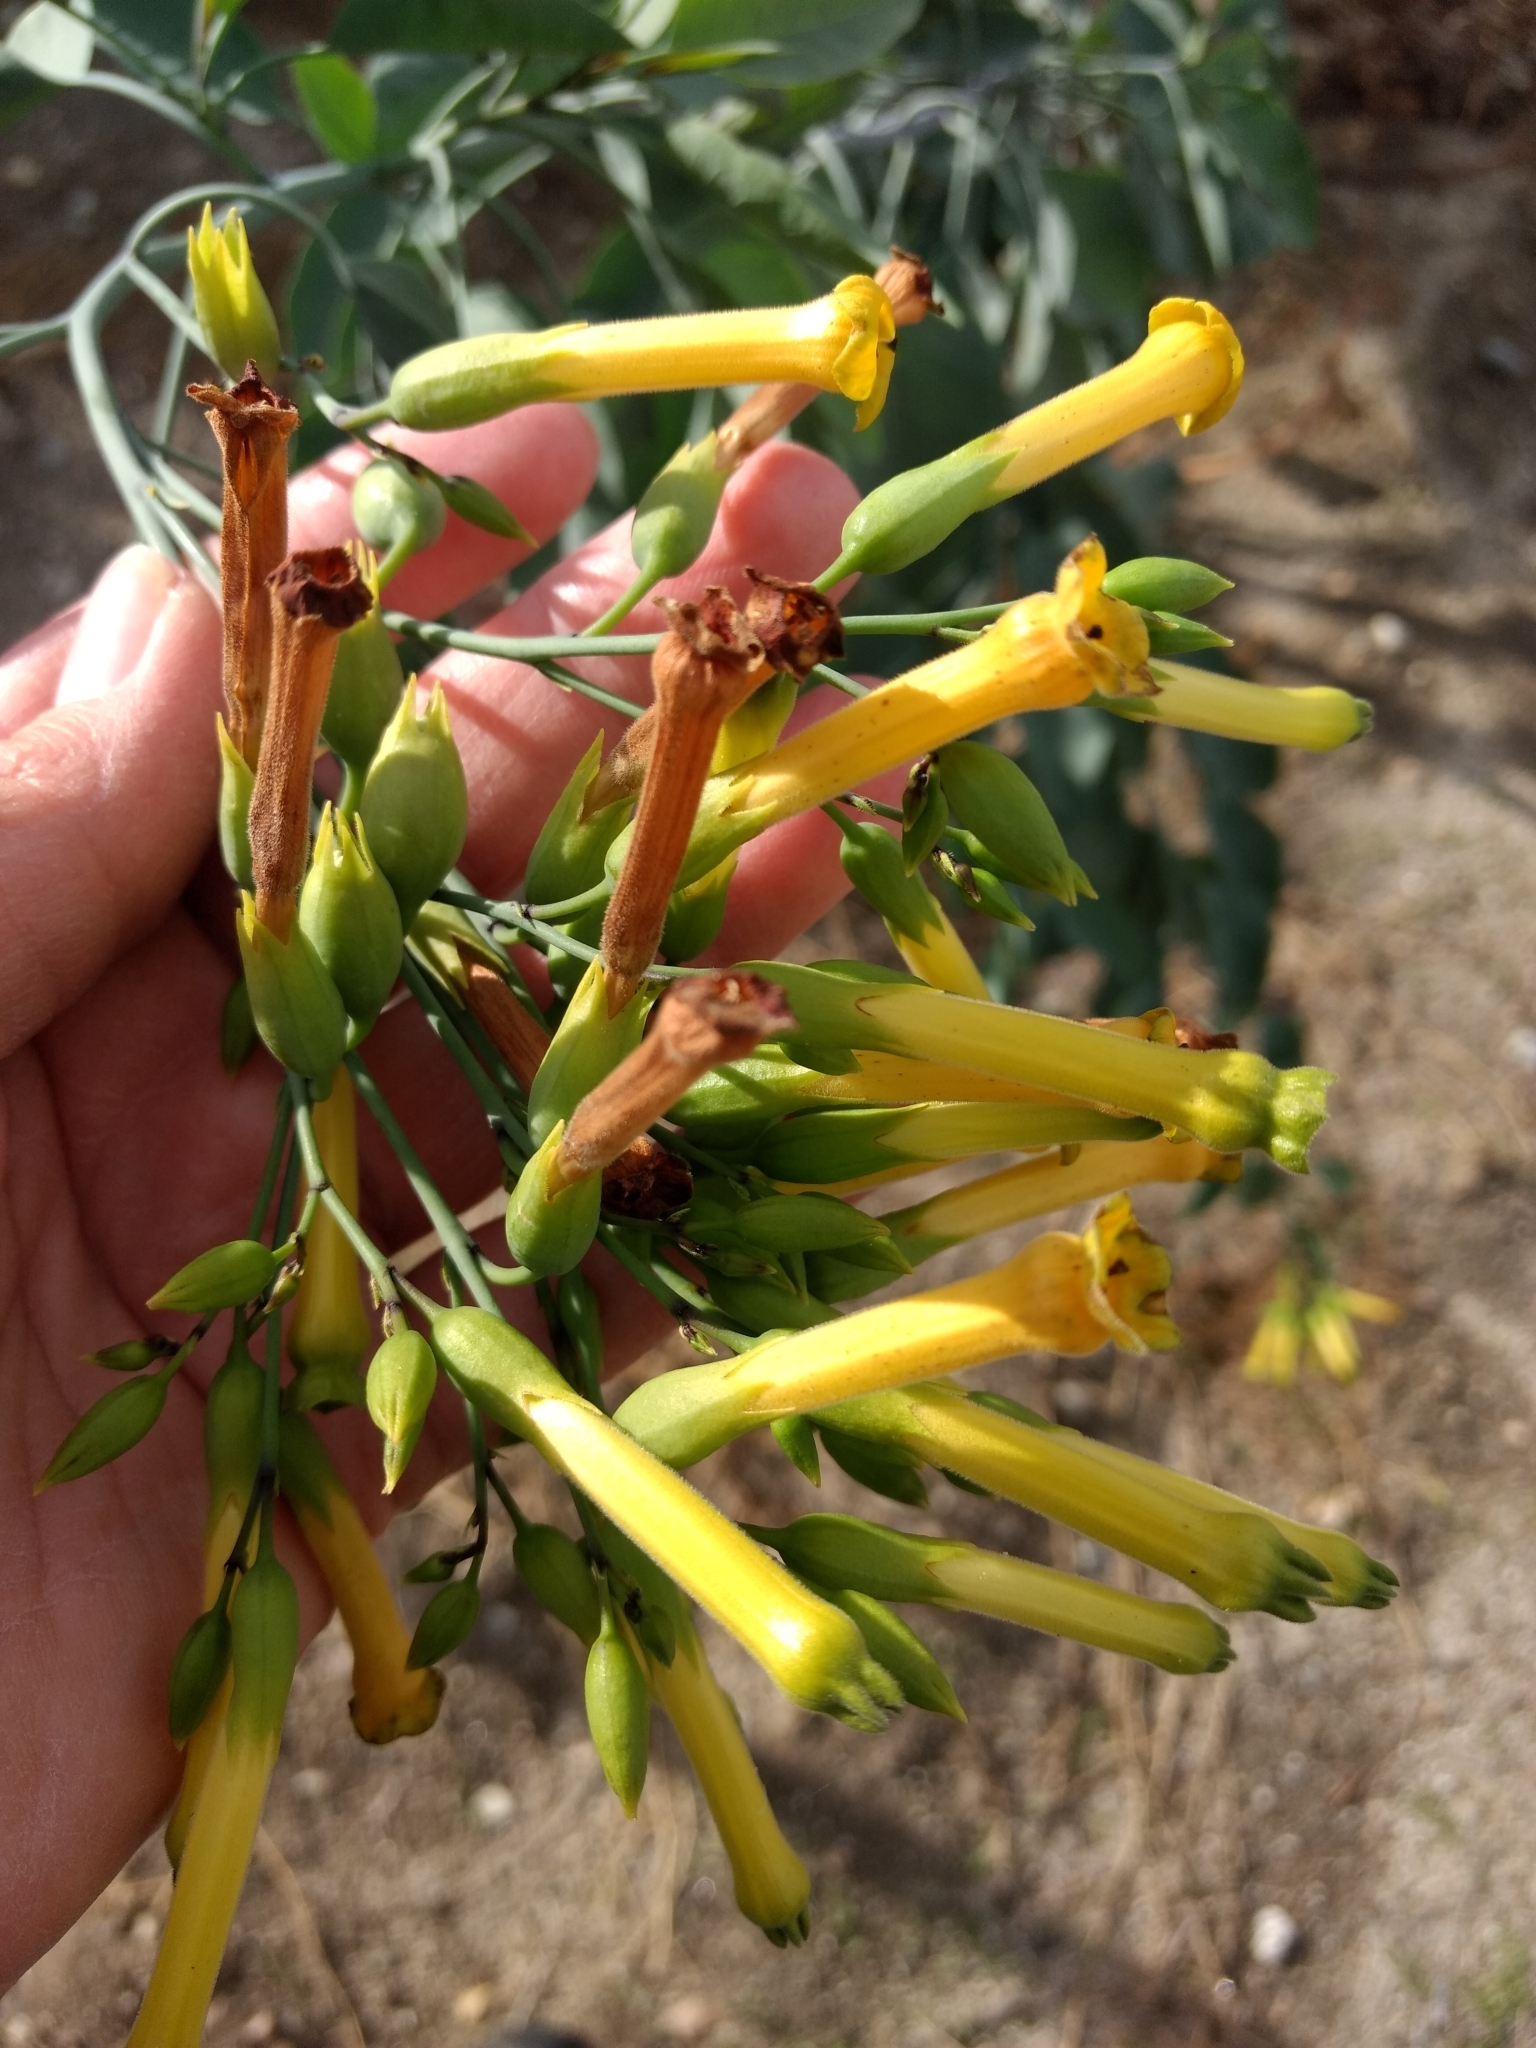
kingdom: Plantae
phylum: Tracheophyta
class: Magnoliopsida
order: Solanales
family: Solanaceae
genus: Nicotiana
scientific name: Nicotiana glauca
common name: Tree tobacco
